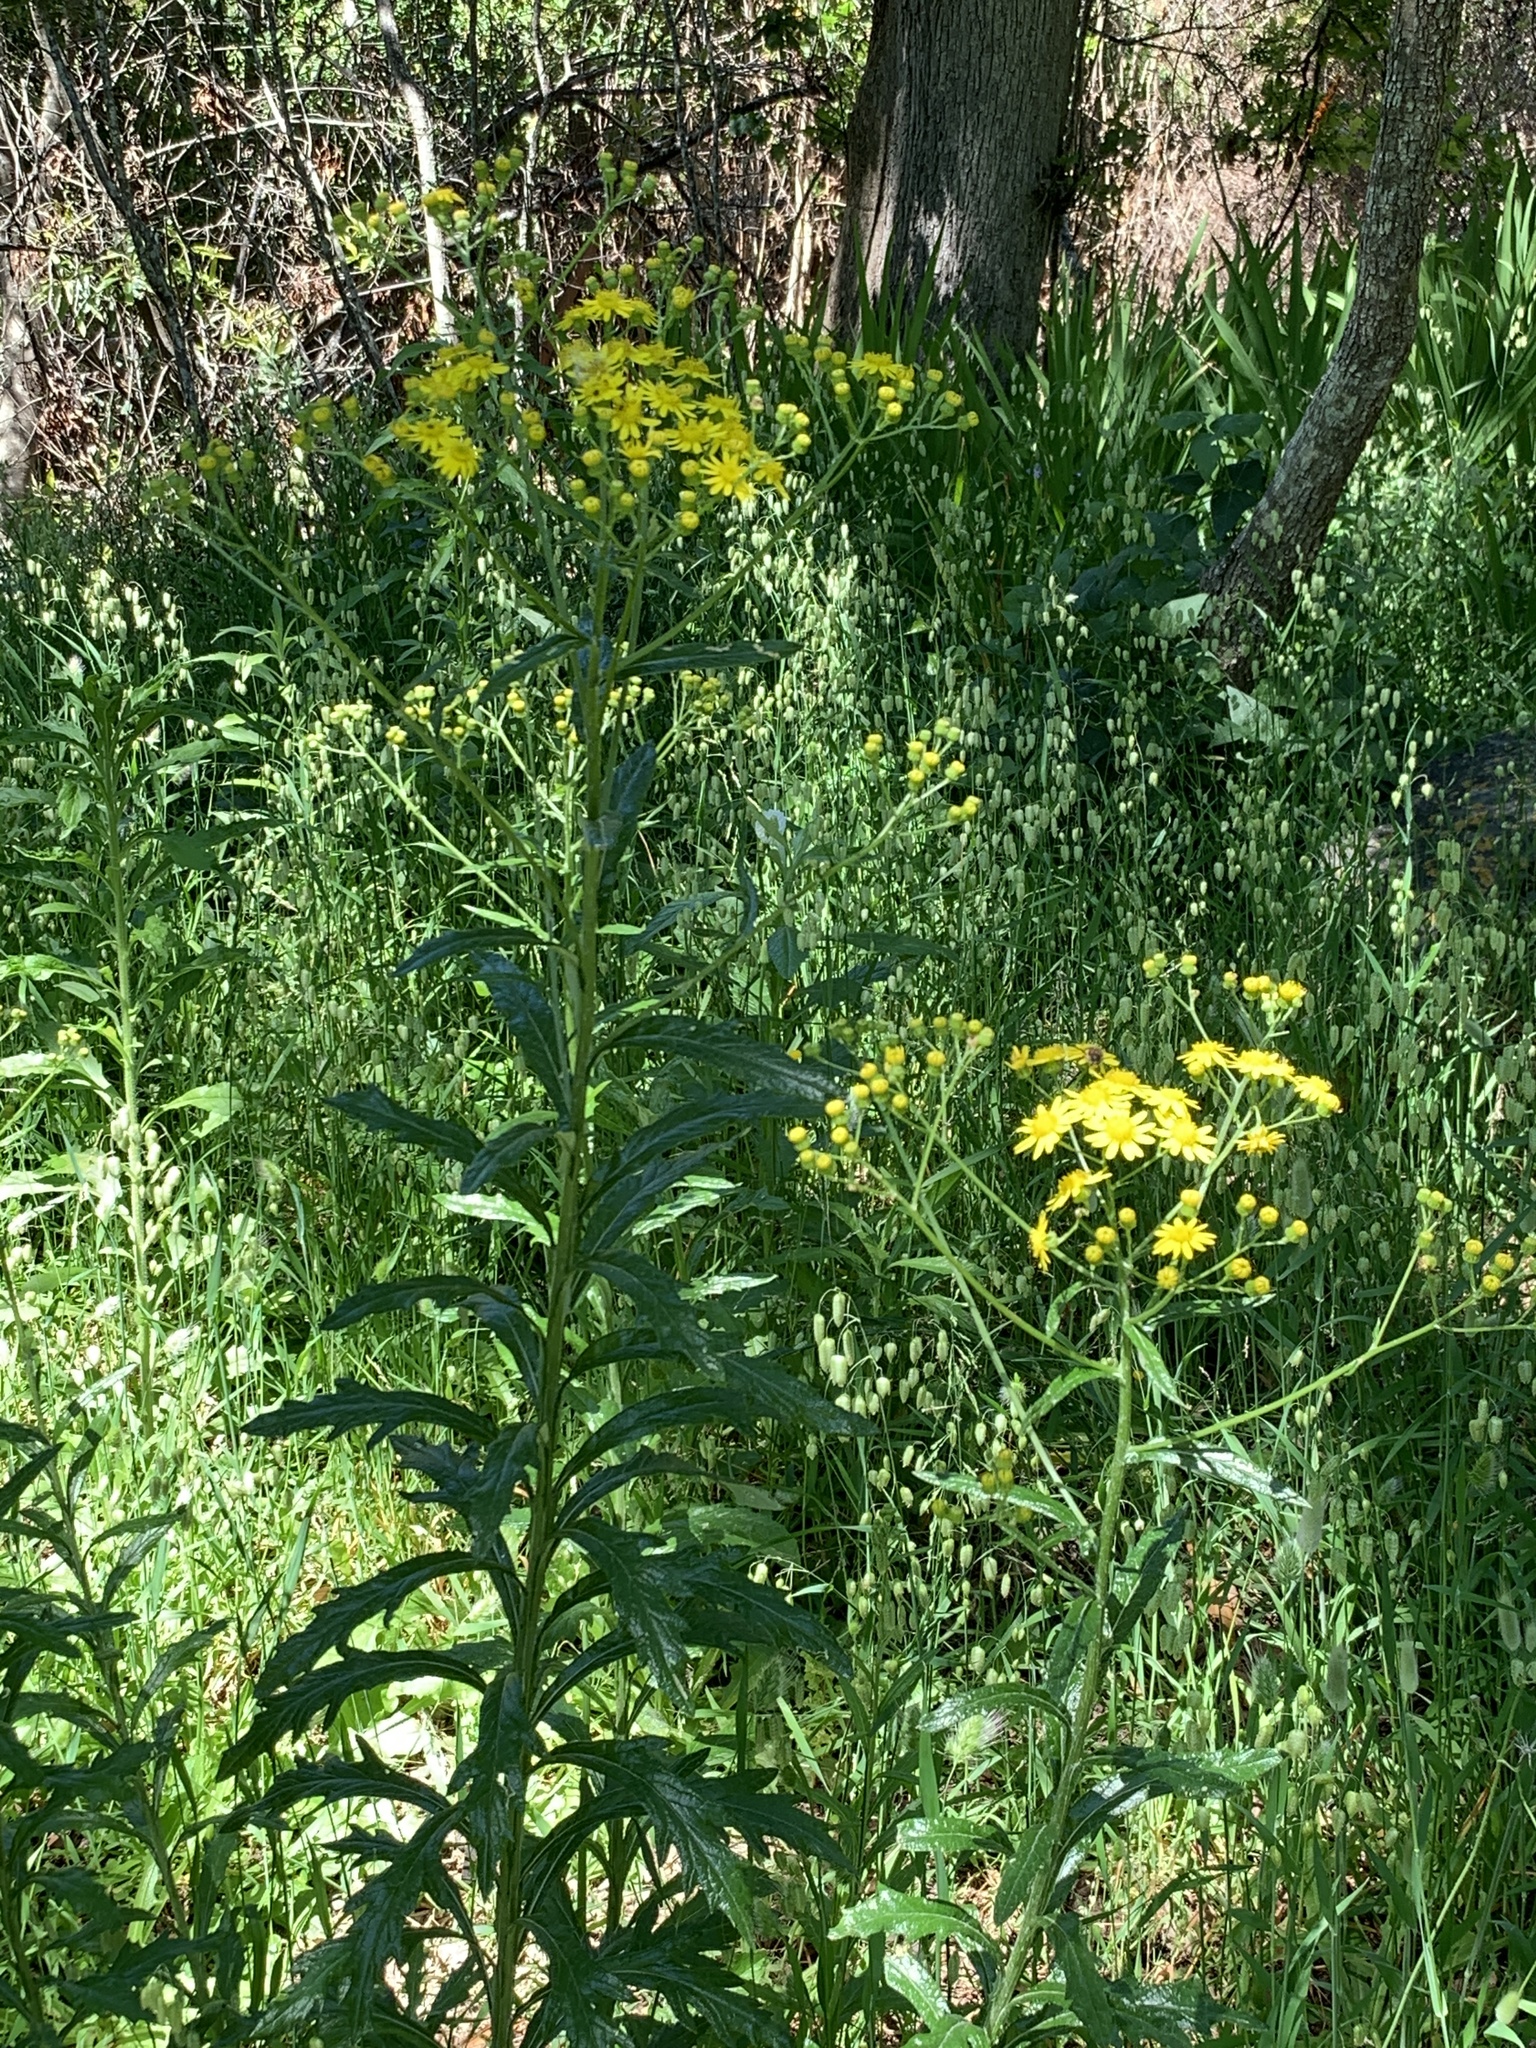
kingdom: Plantae
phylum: Tracheophyta
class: Magnoliopsida
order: Asterales
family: Asteraceae
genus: Senecio
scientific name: Senecio pterophorus
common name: Shoddy ragwort
